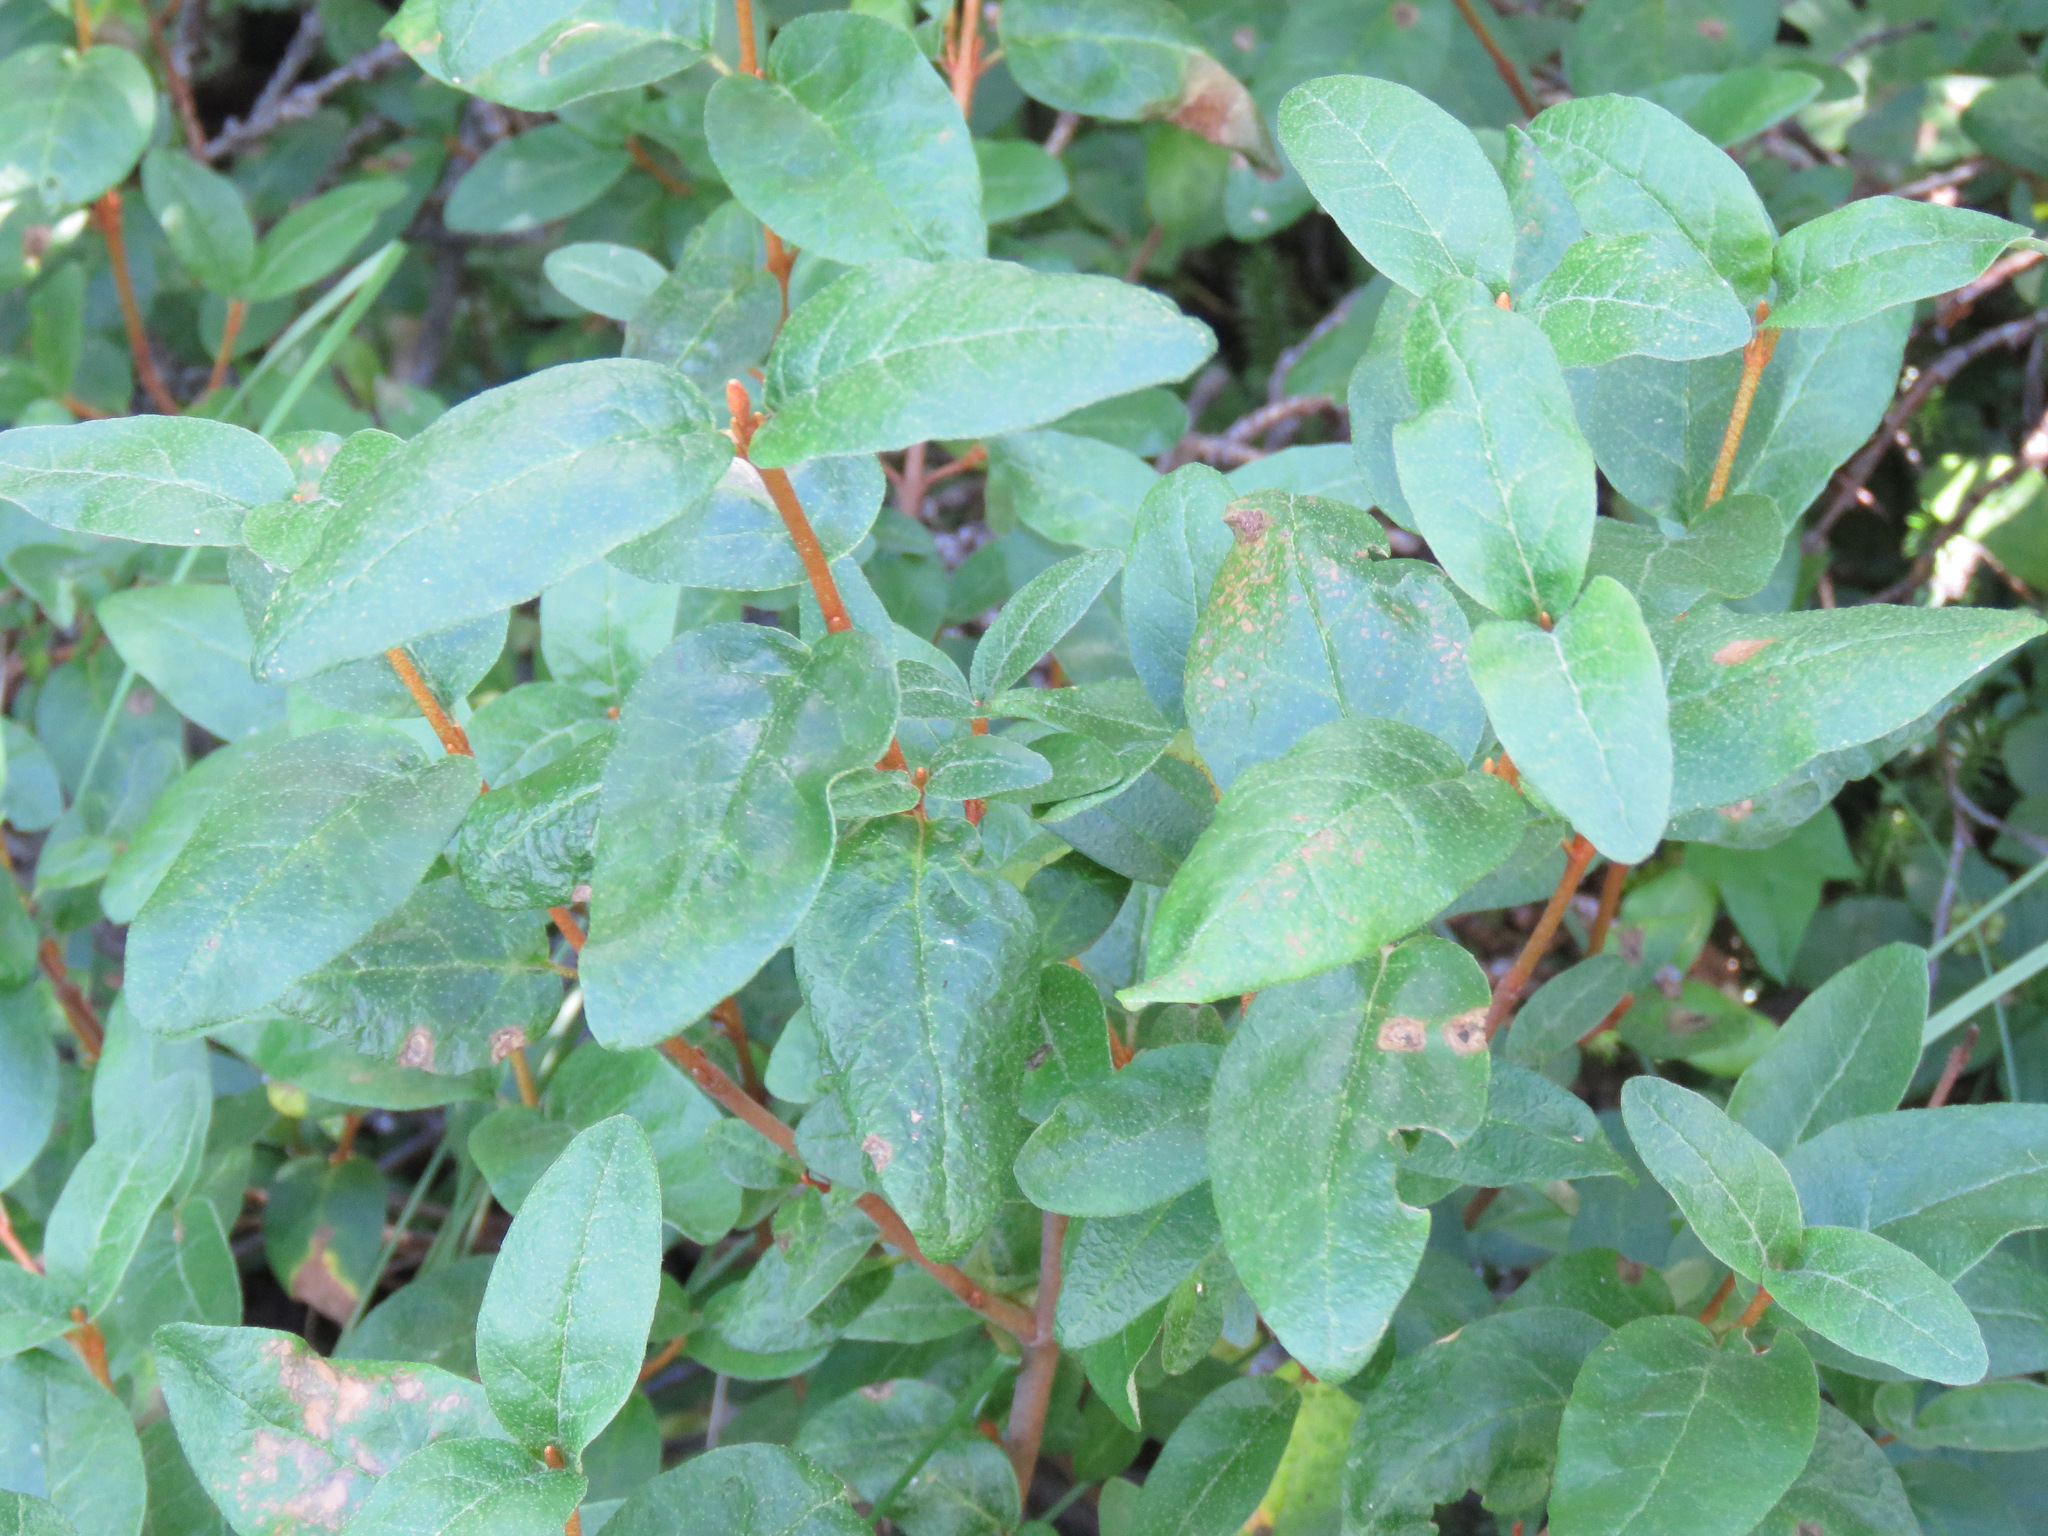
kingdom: Plantae
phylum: Tracheophyta
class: Magnoliopsida
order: Rosales
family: Elaeagnaceae
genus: Shepherdia
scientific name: Shepherdia canadensis
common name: Soapberry
